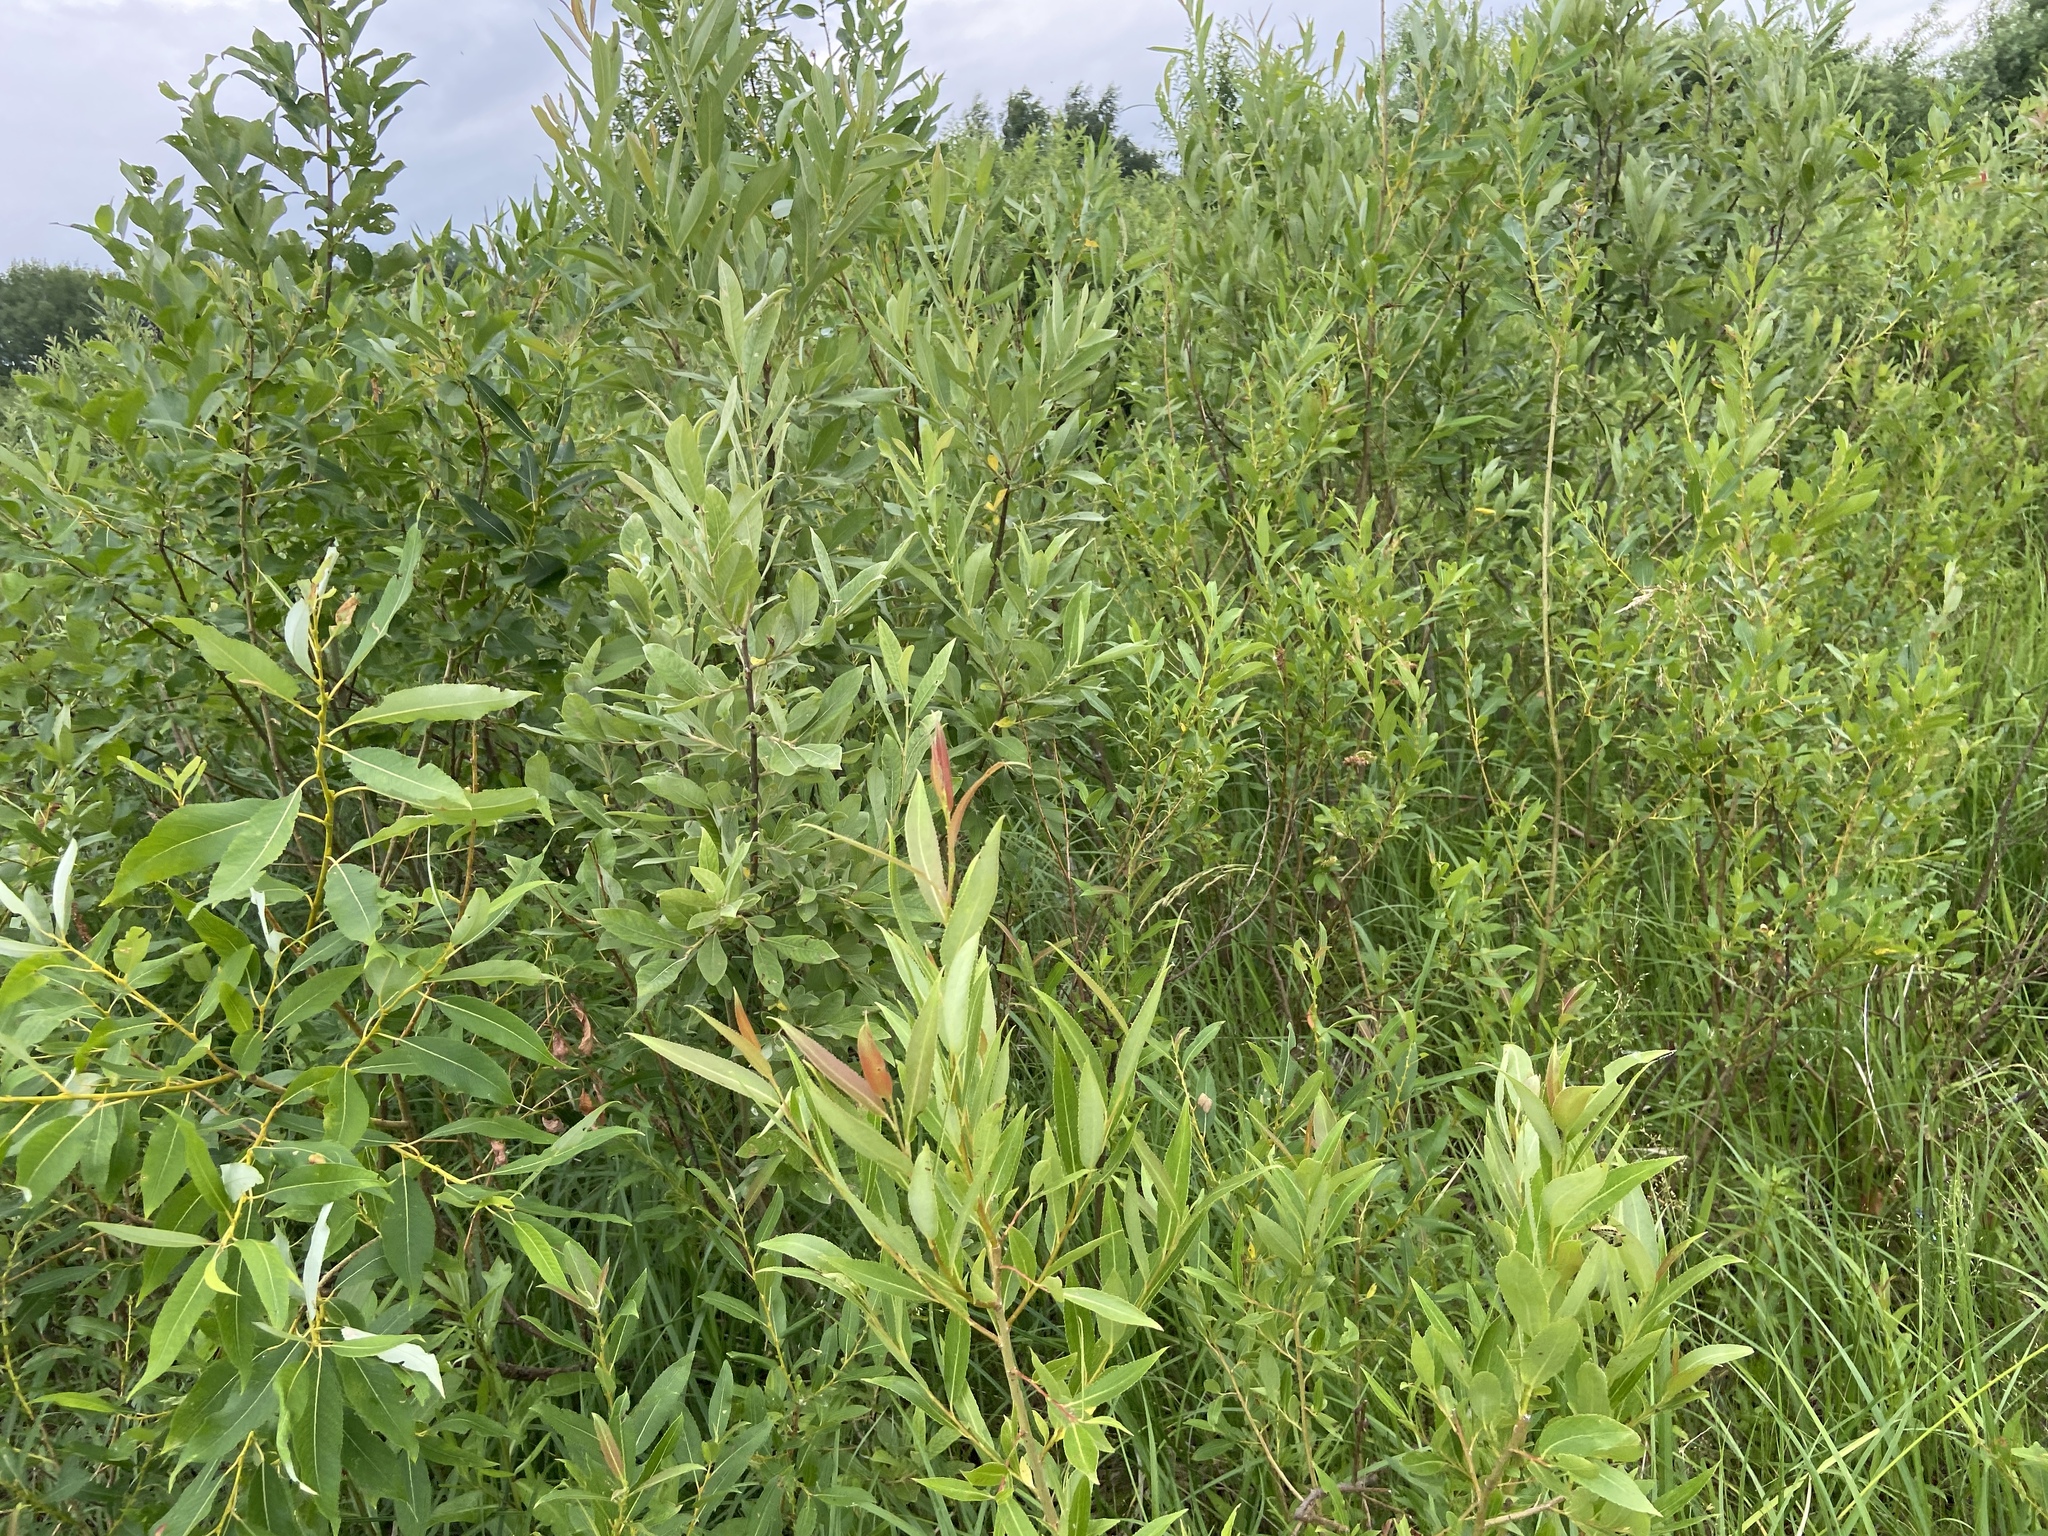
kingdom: Plantae
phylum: Tracheophyta
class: Magnoliopsida
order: Malpighiales
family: Salicaceae
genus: Salix
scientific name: Salix triandra
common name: Almond willow
